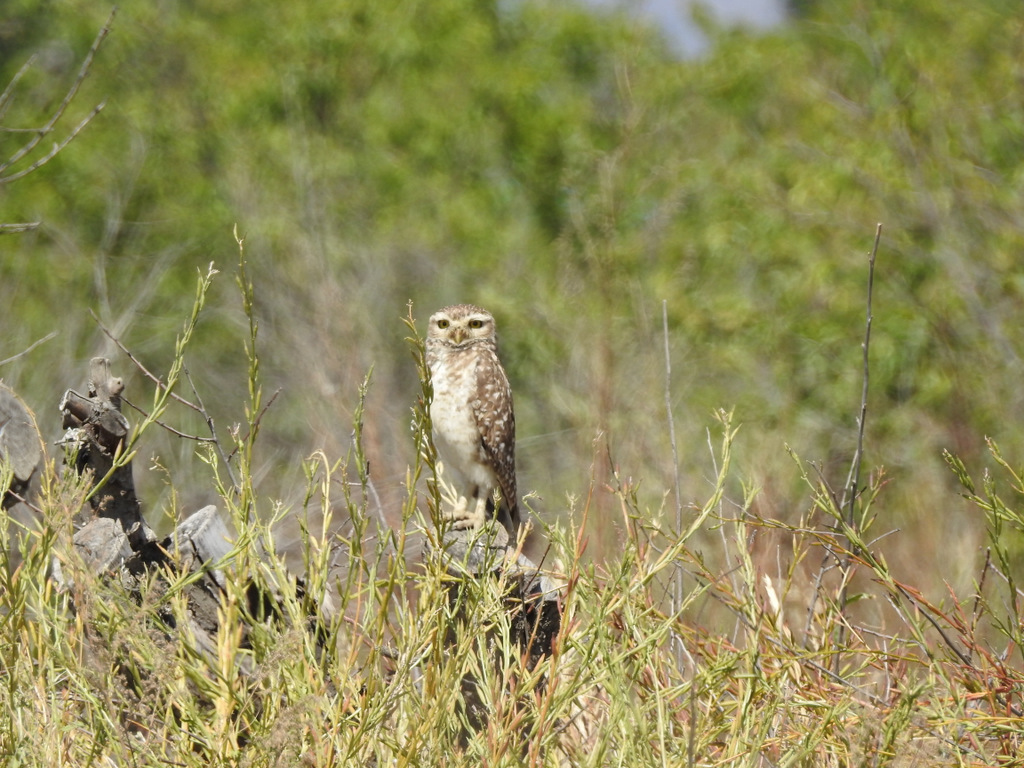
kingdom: Animalia
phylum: Chordata
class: Aves
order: Strigiformes
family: Strigidae
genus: Athene
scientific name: Athene cunicularia
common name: Burrowing owl
